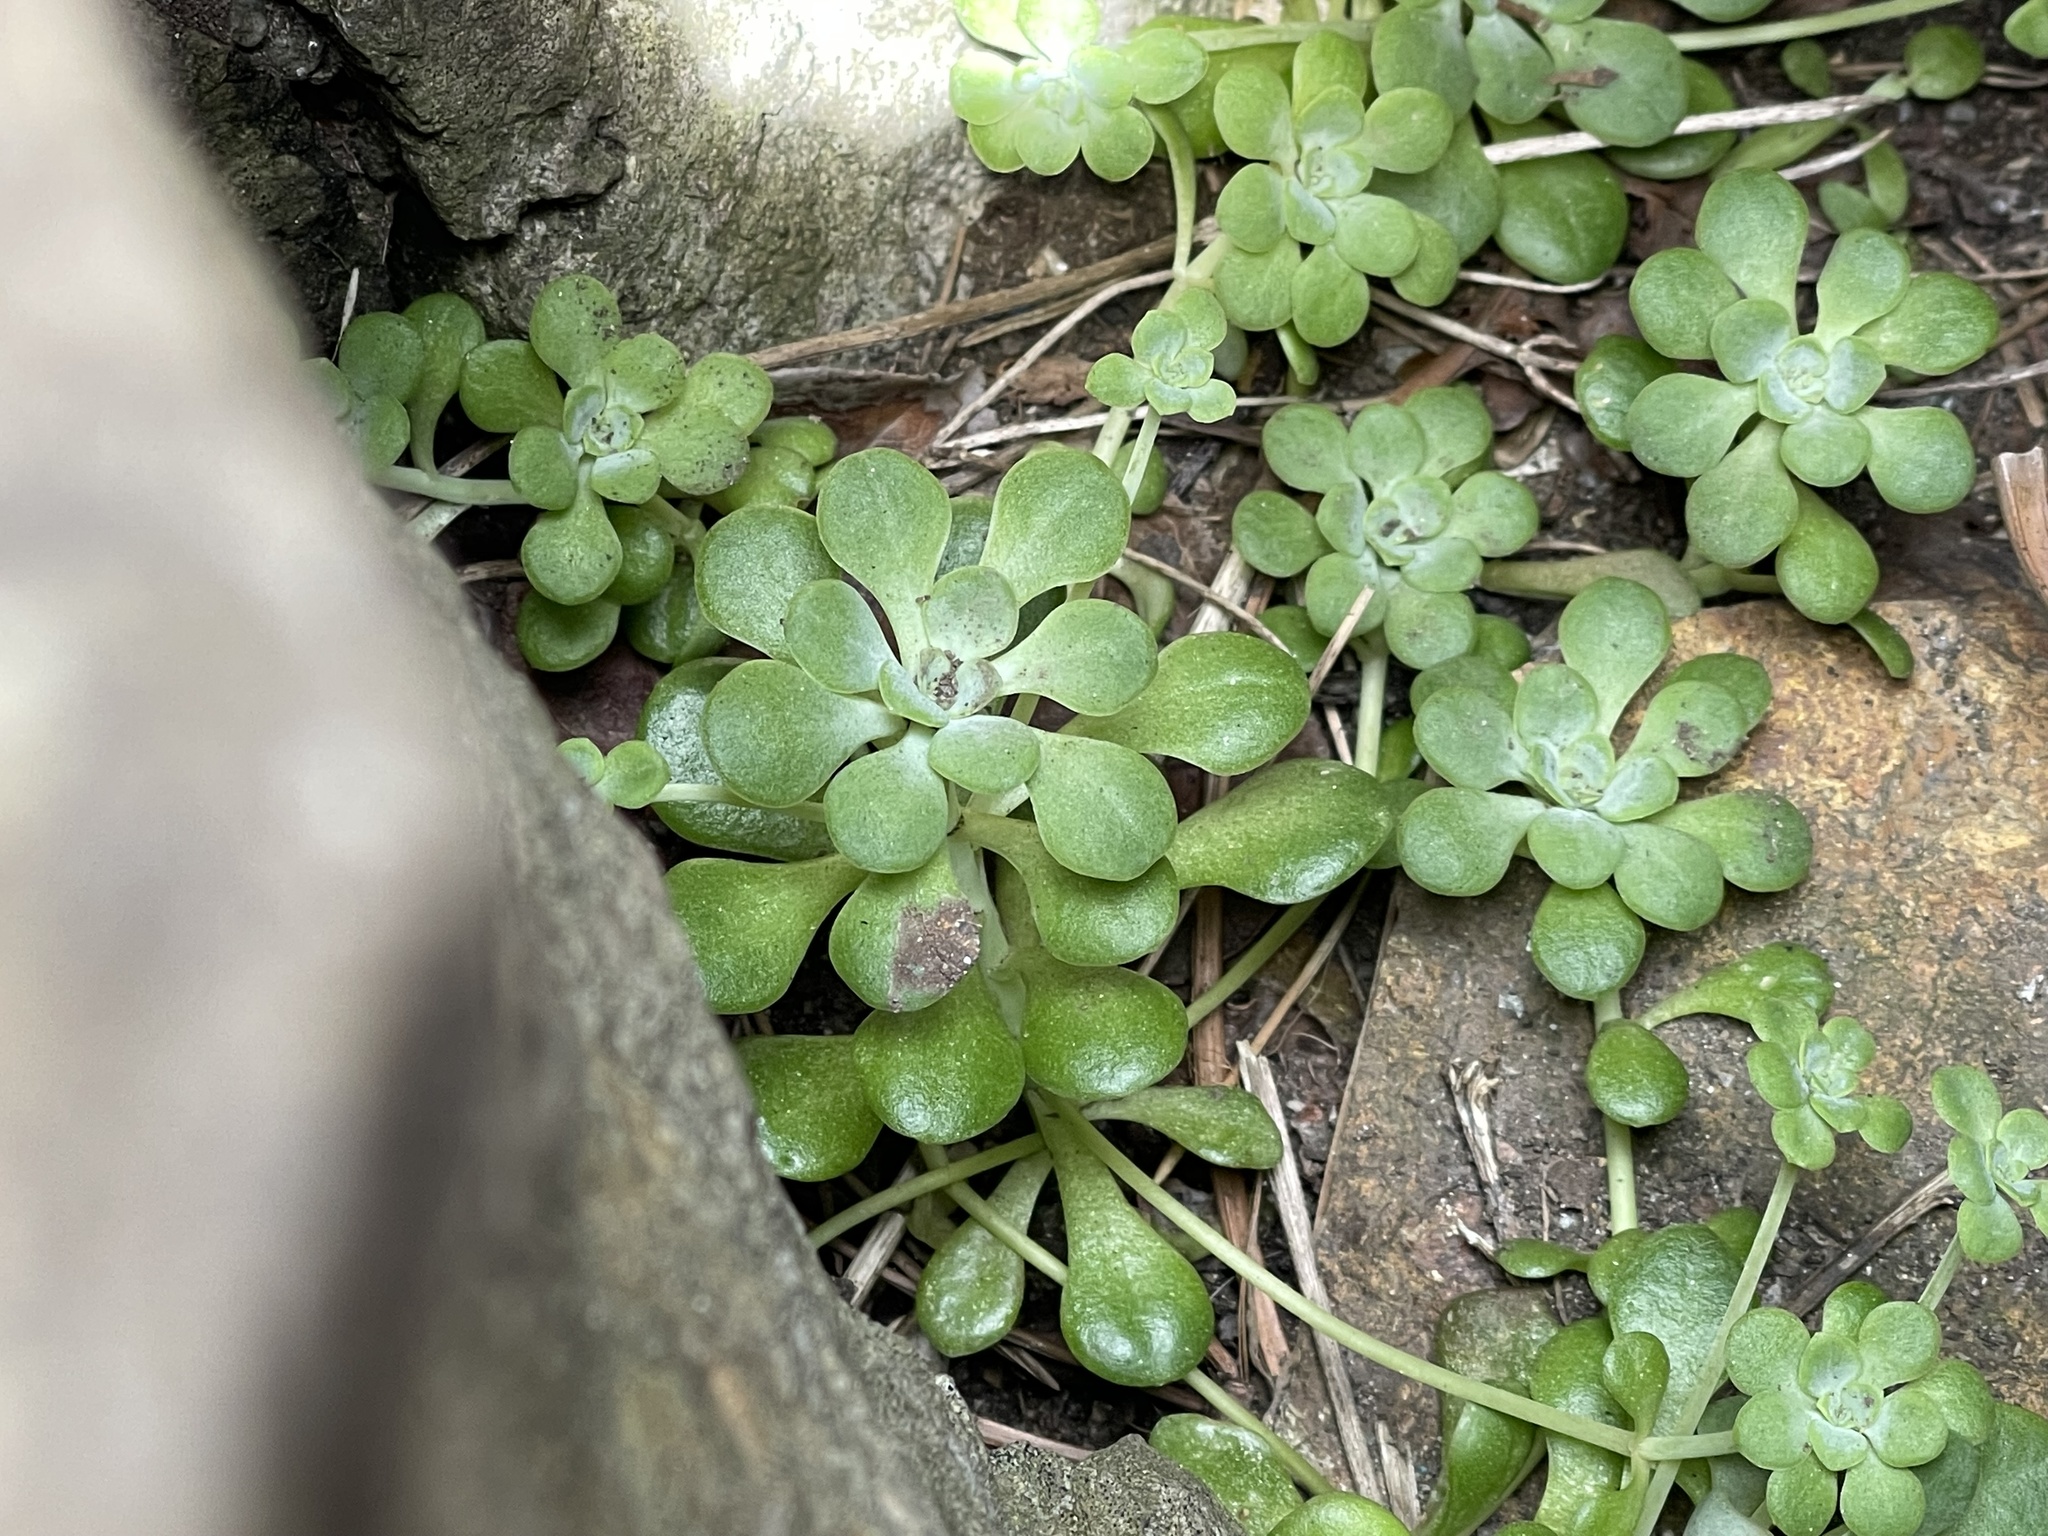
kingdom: Plantae
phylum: Tracheophyta
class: Magnoliopsida
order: Saxifragales
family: Crassulaceae
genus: Sedum
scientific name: Sedum spathulifolium
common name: Colorado stonecrop
